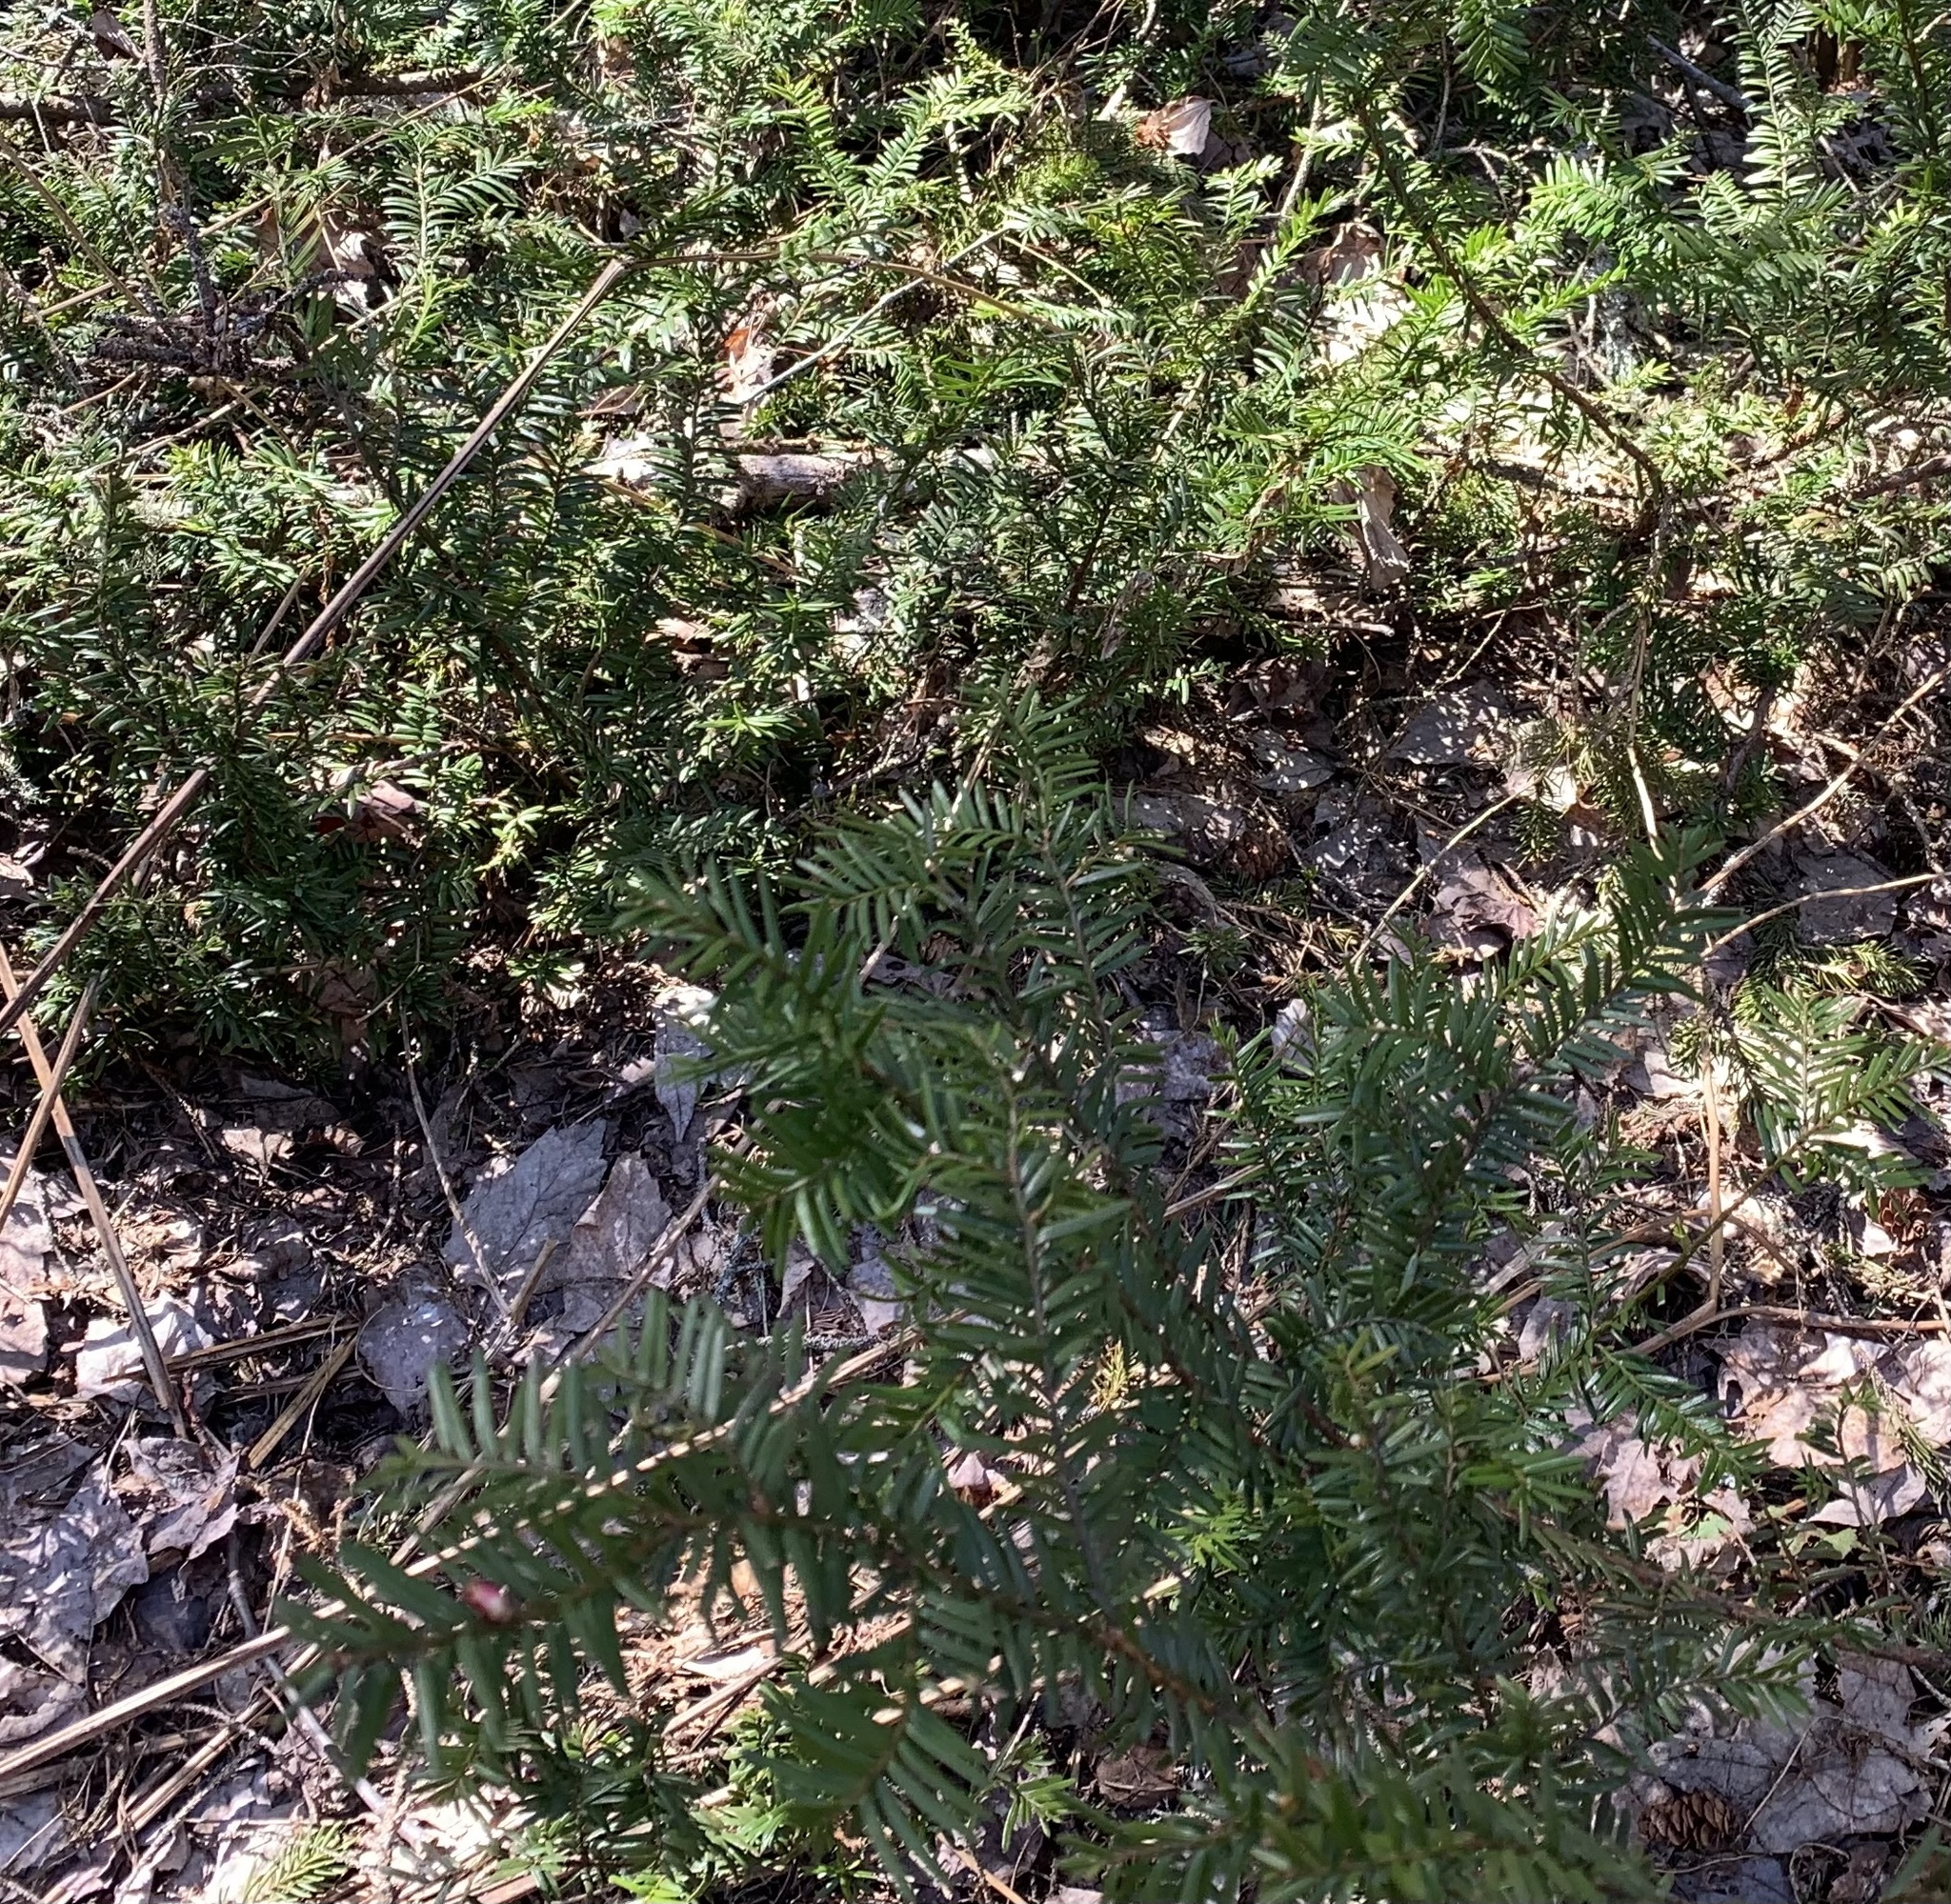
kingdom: Plantae
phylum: Tracheophyta
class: Pinopsida
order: Pinales
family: Taxaceae
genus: Taxus
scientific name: Taxus canadensis
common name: American yew
